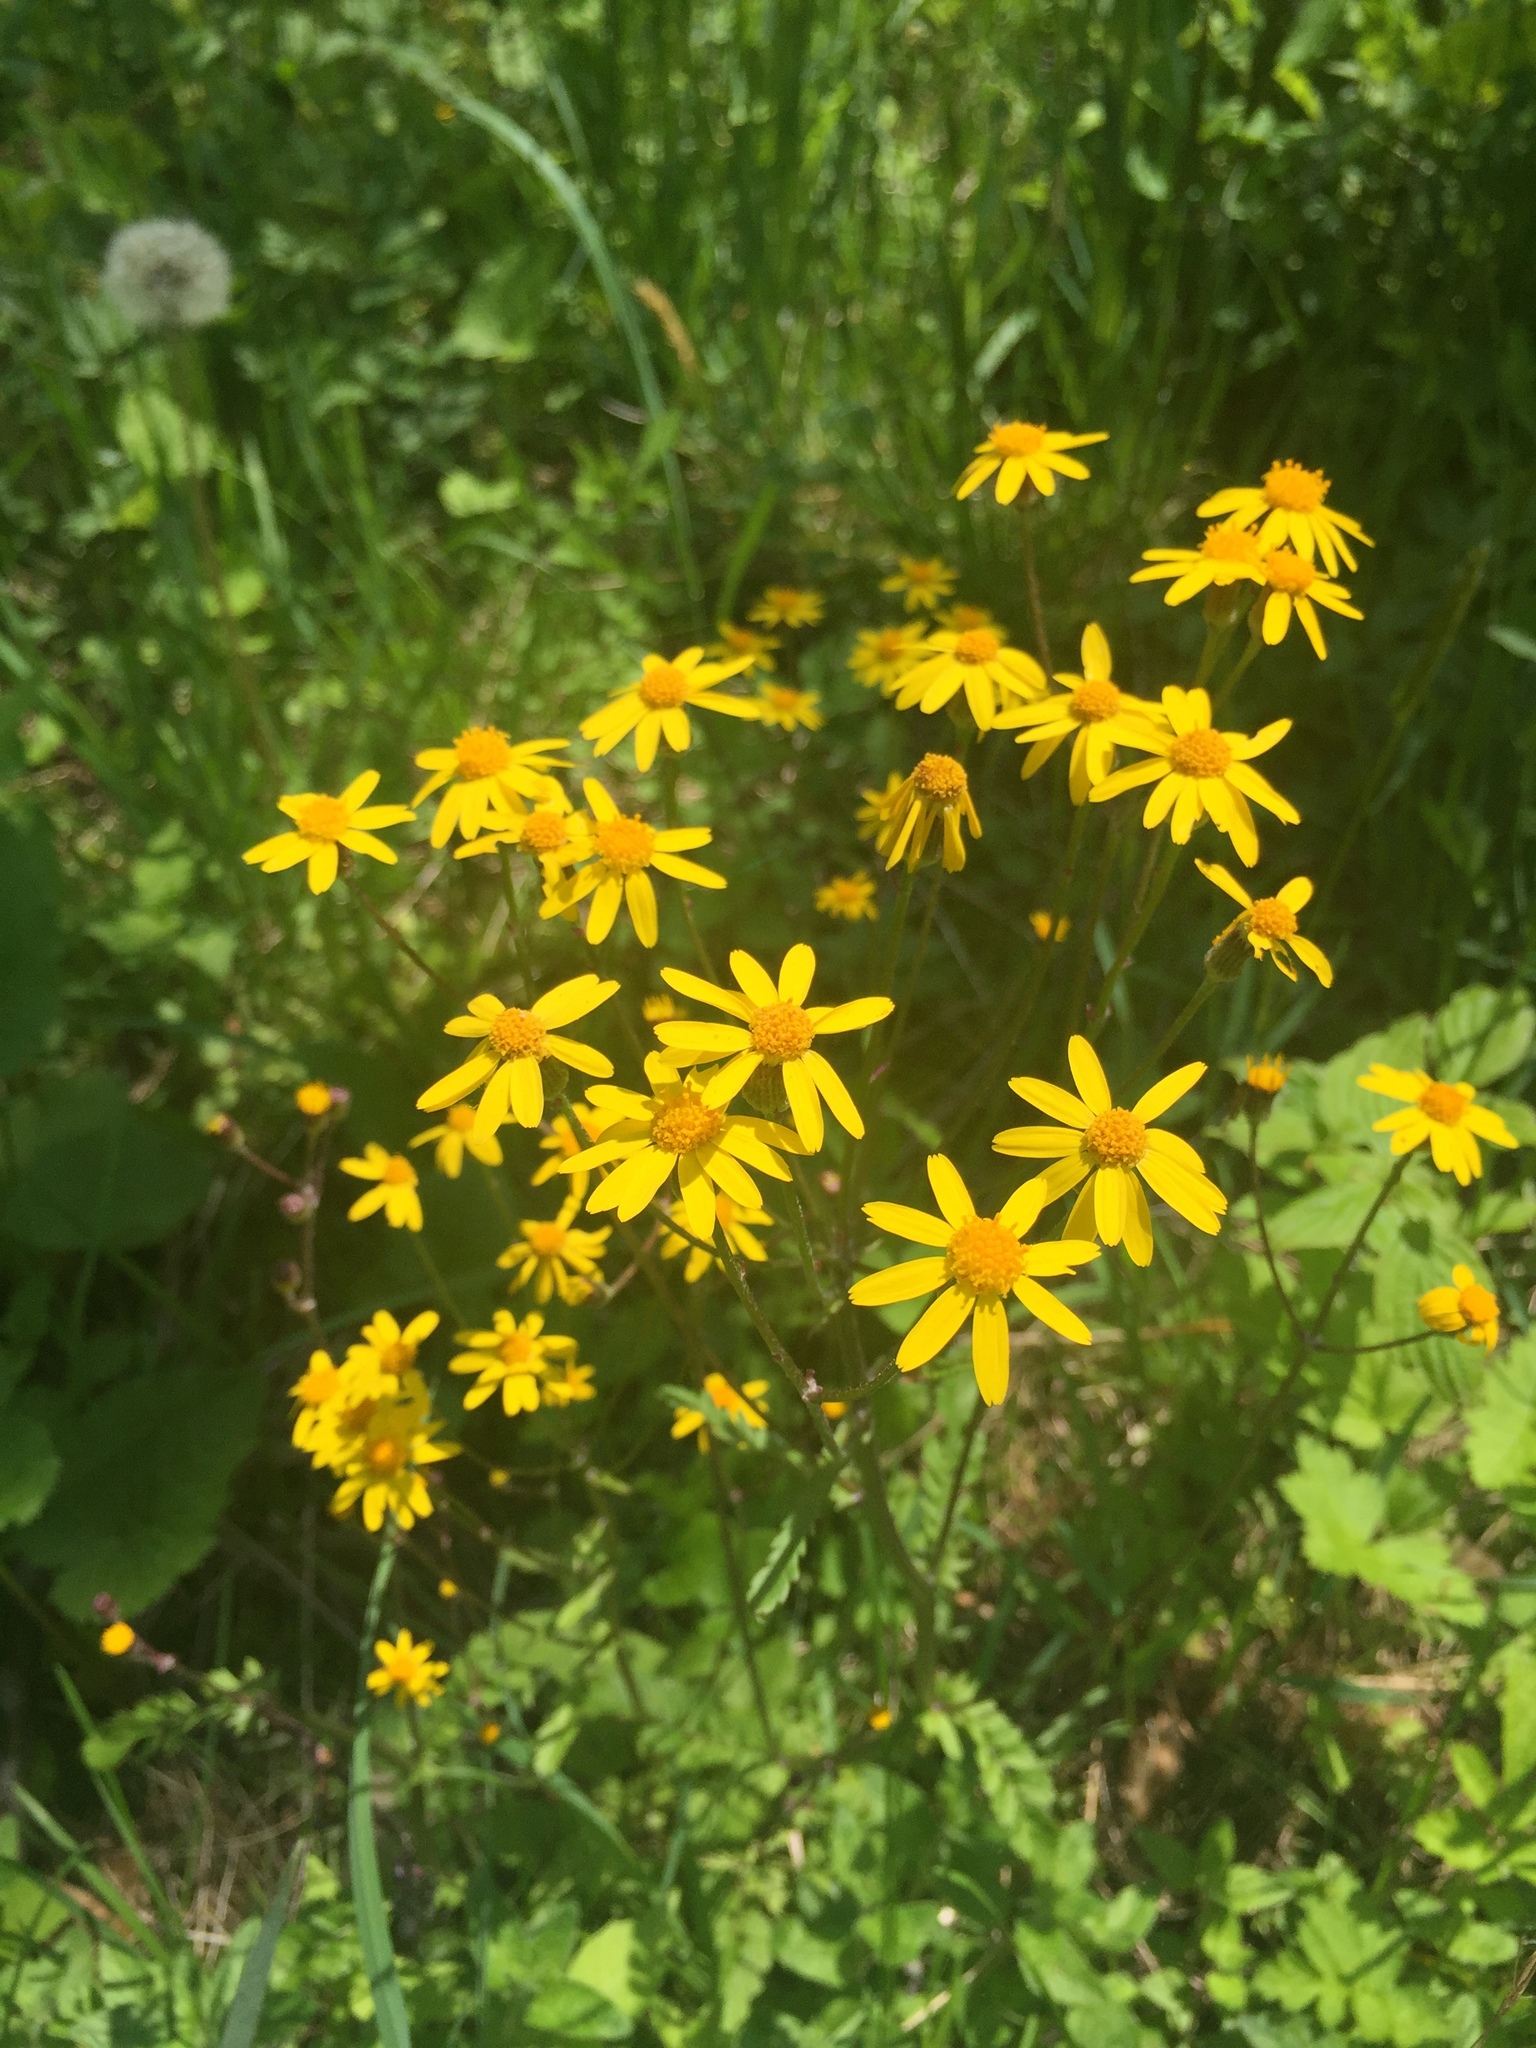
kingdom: Plantae
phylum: Tracheophyta
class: Magnoliopsida
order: Asterales
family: Asteraceae
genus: Packera
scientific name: Packera aurea
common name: Golden groundsel
